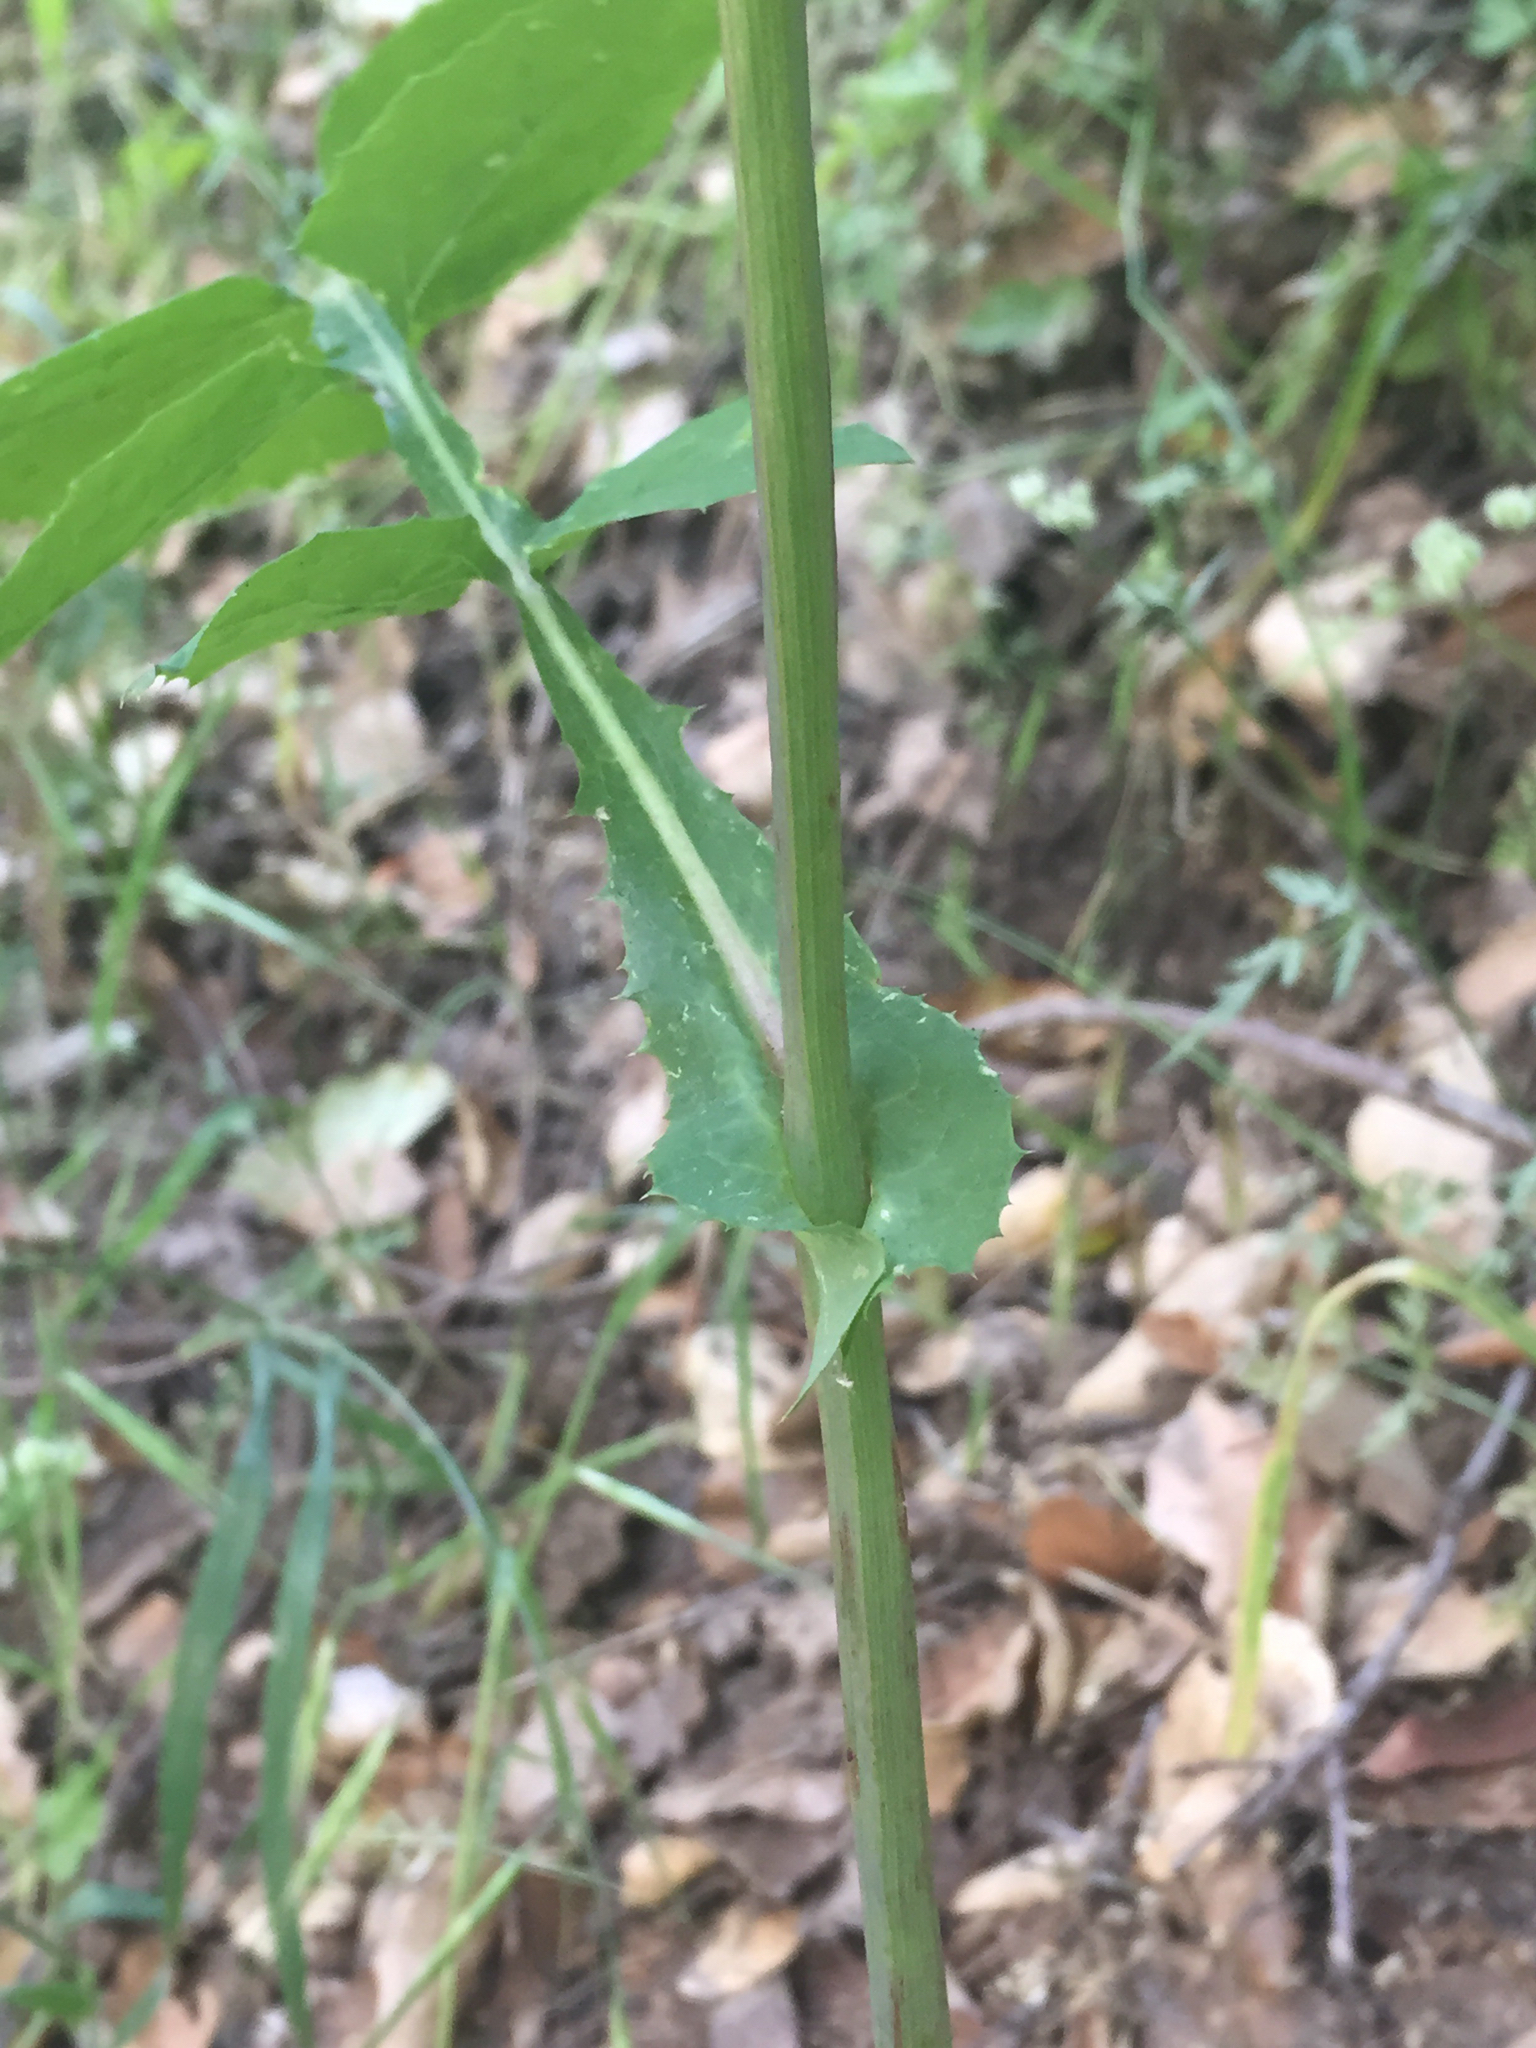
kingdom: Plantae
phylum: Tracheophyta
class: Magnoliopsida
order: Asterales
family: Asteraceae
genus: Sonchus
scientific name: Sonchus oleraceus
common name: Common sowthistle
